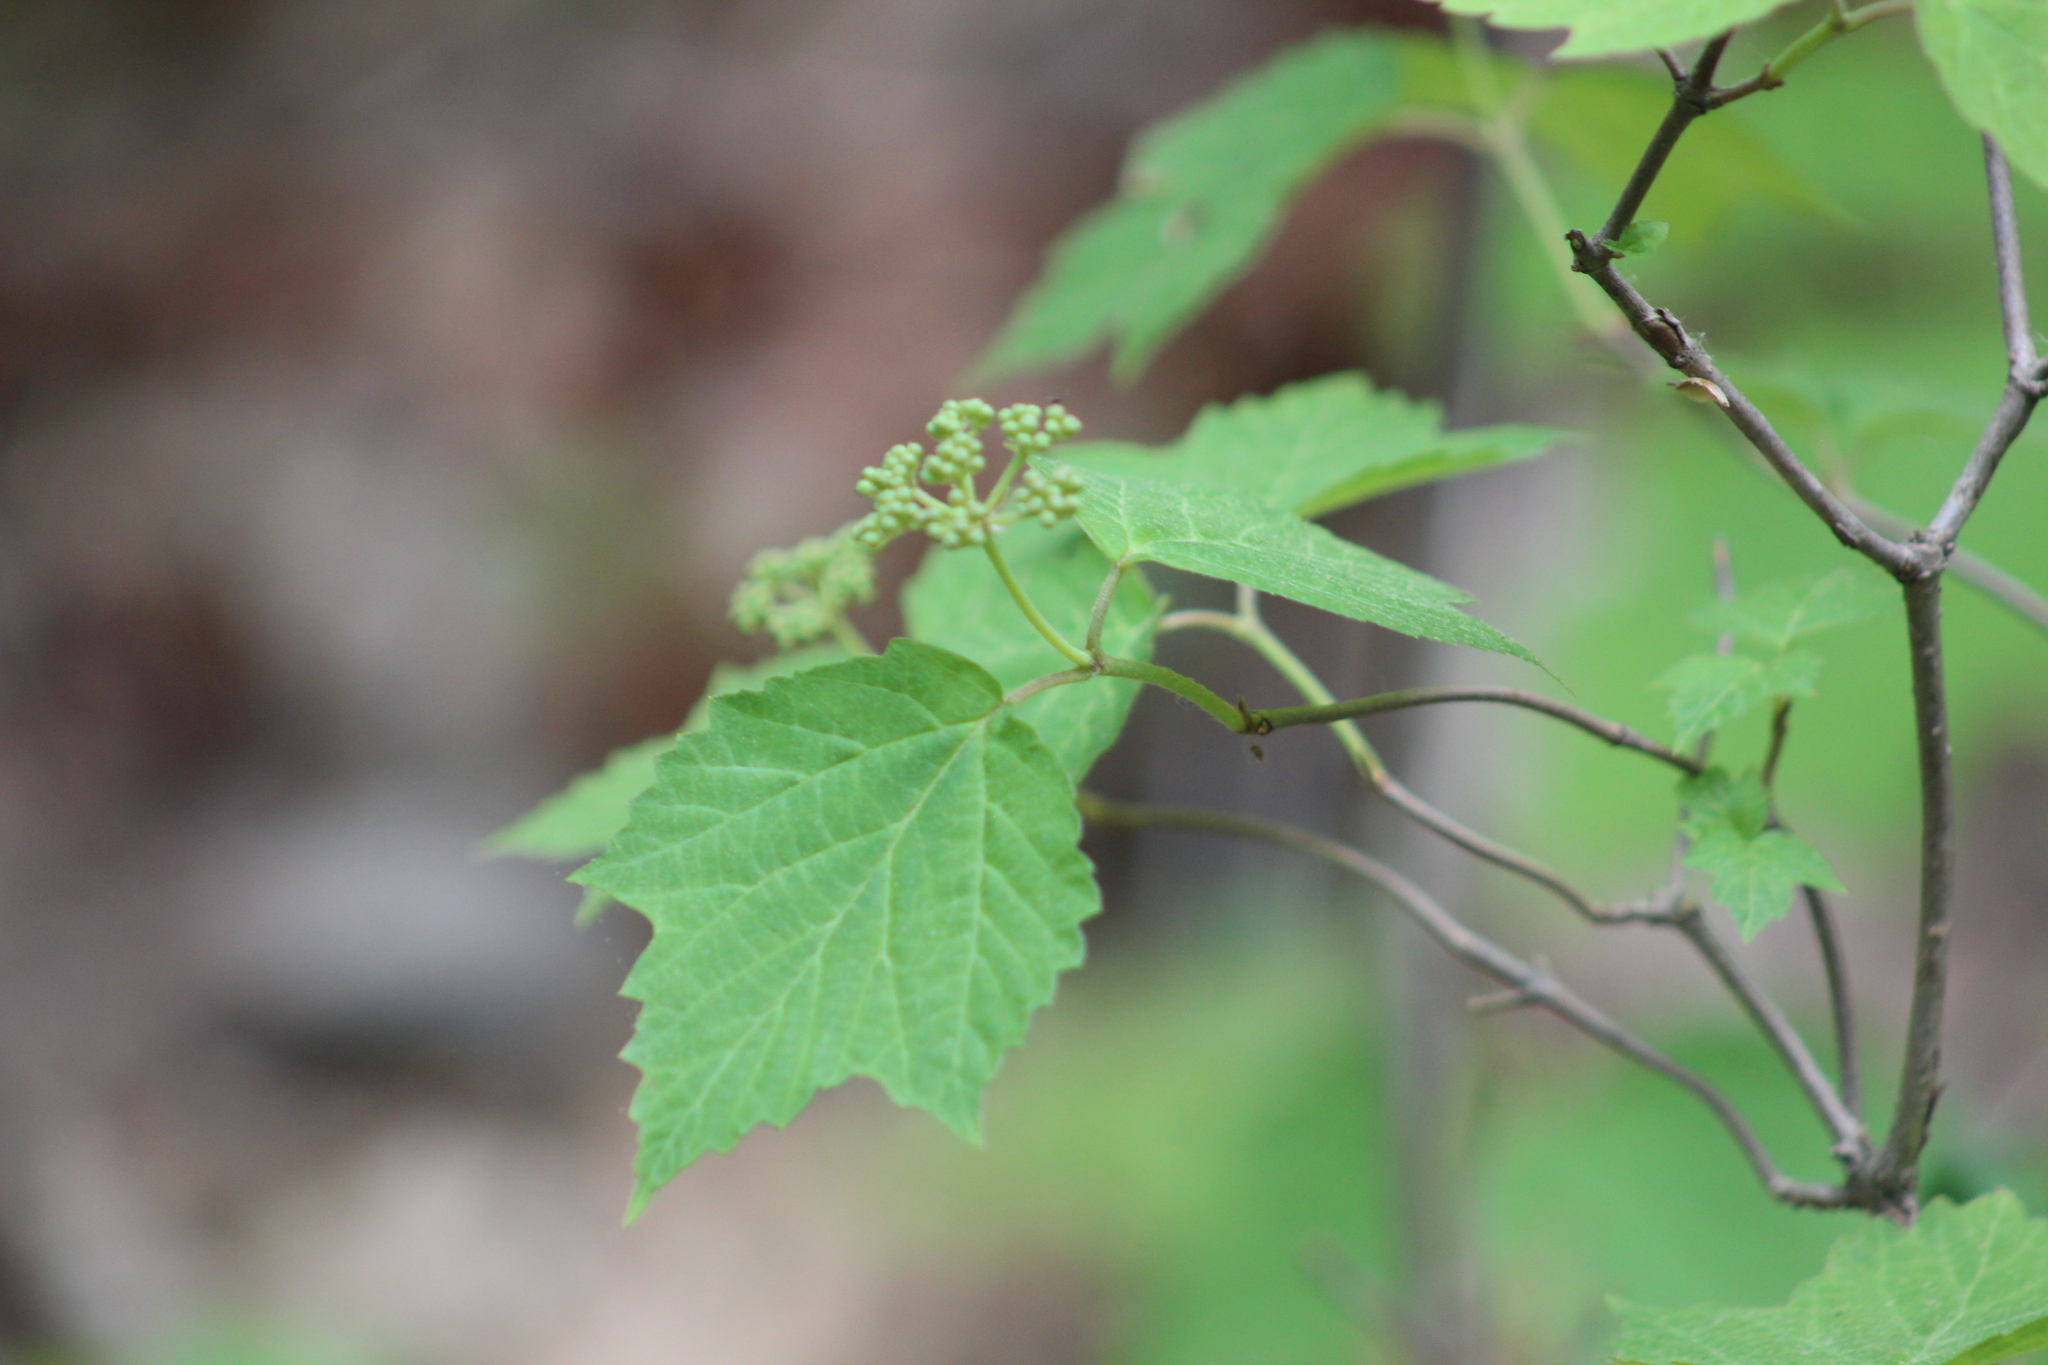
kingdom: Plantae
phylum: Tracheophyta
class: Magnoliopsida
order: Dipsacales
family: Viburnaceae
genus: Viburnum
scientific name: Viburnum acerifolium
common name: Dockmackie
